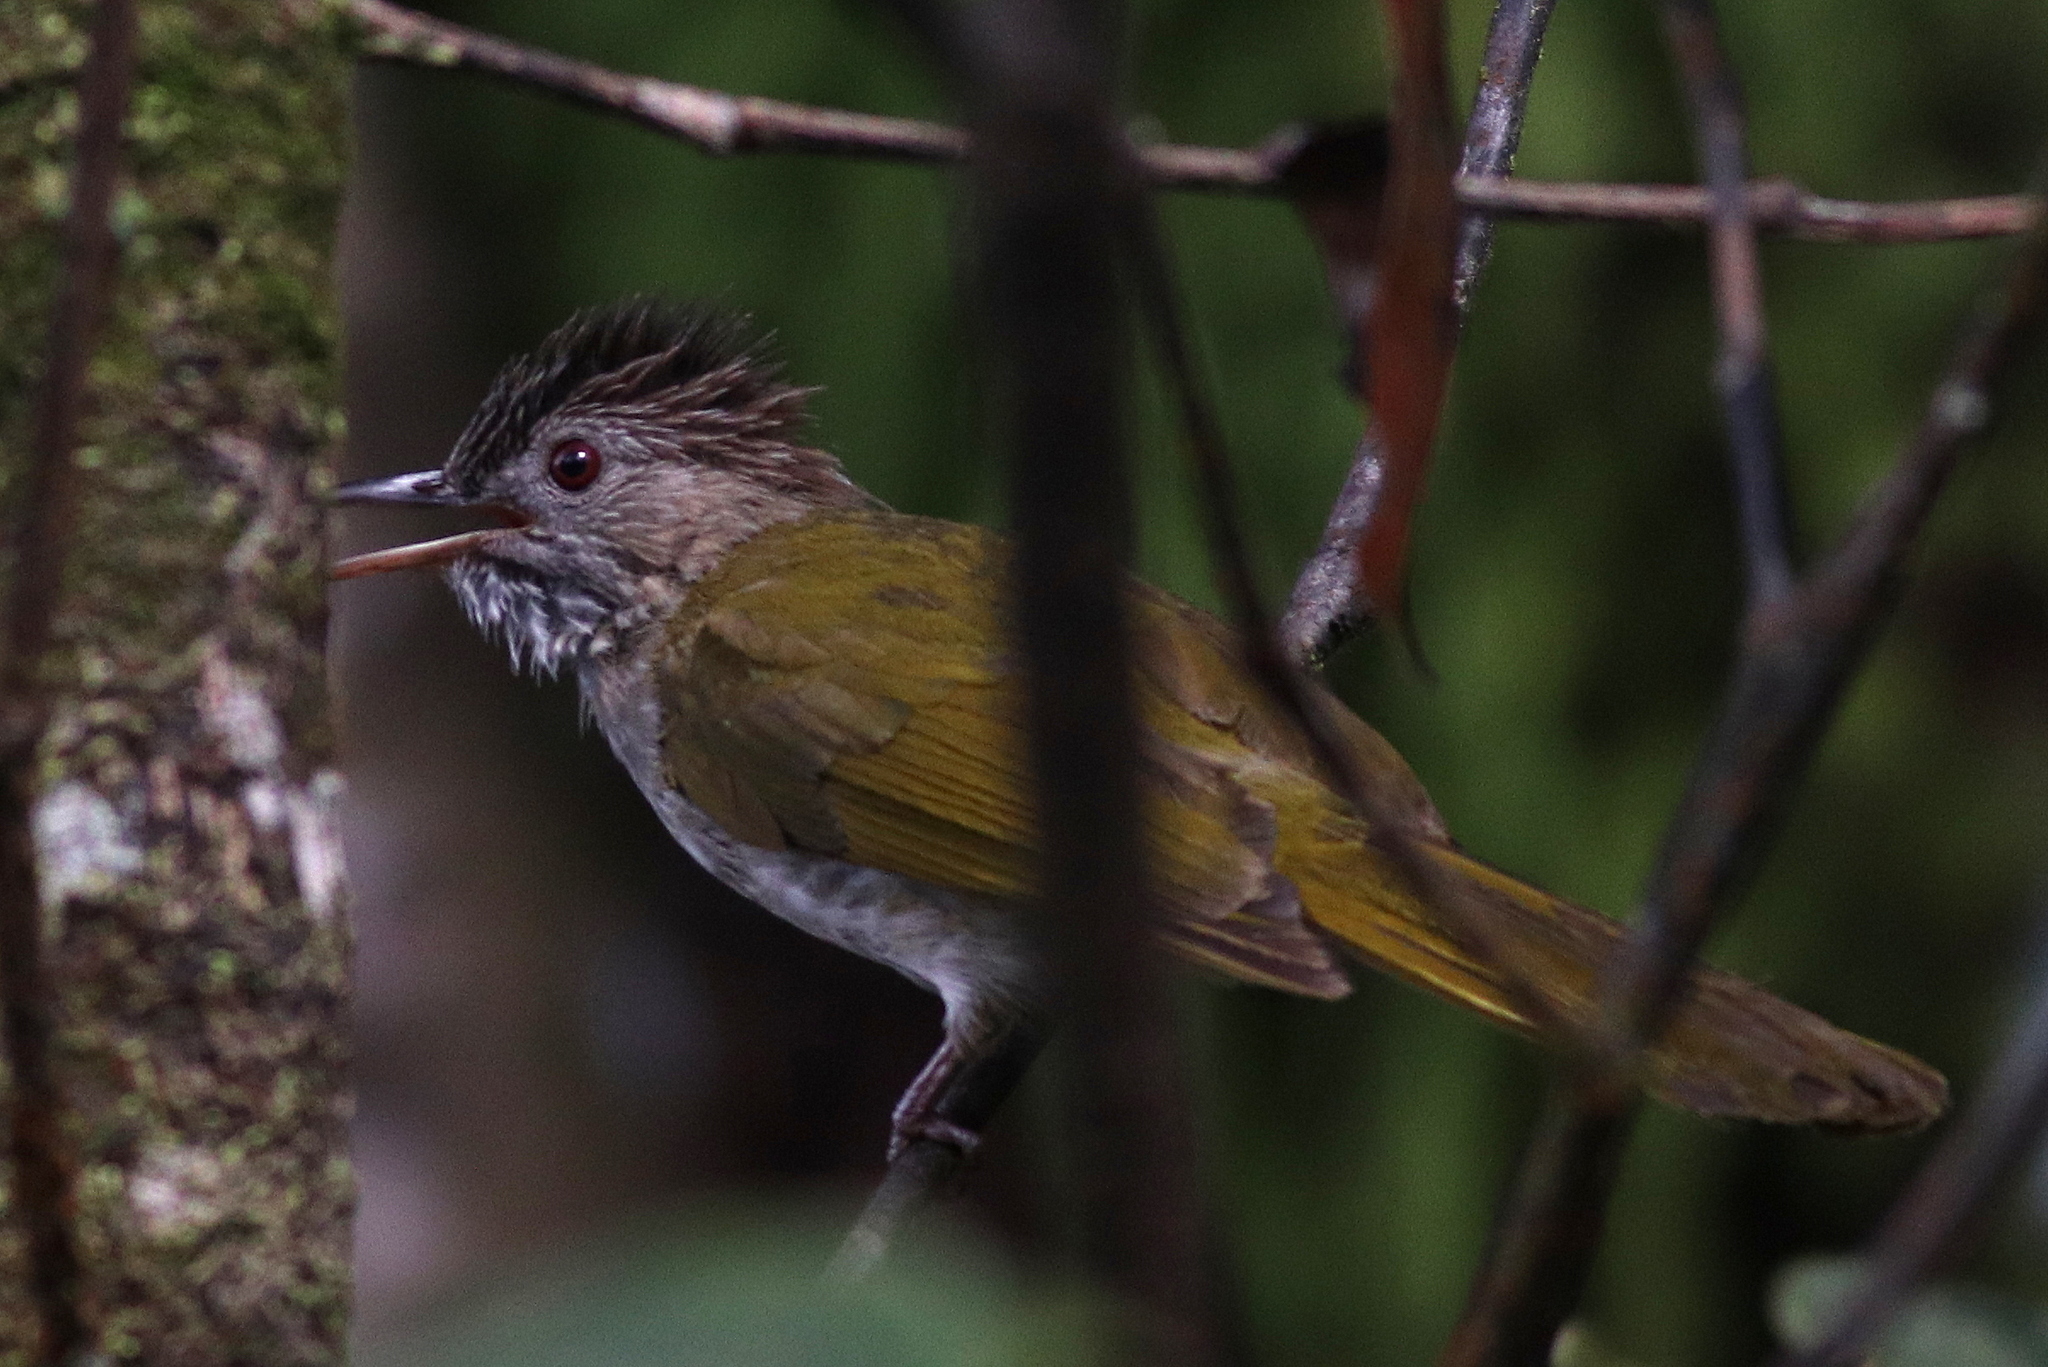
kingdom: Animalia
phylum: Chordata
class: Aves
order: Passeriformes
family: Pycnonotidae
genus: Ixos
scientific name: Ixos mcclellandii
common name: Mountain bulbul
